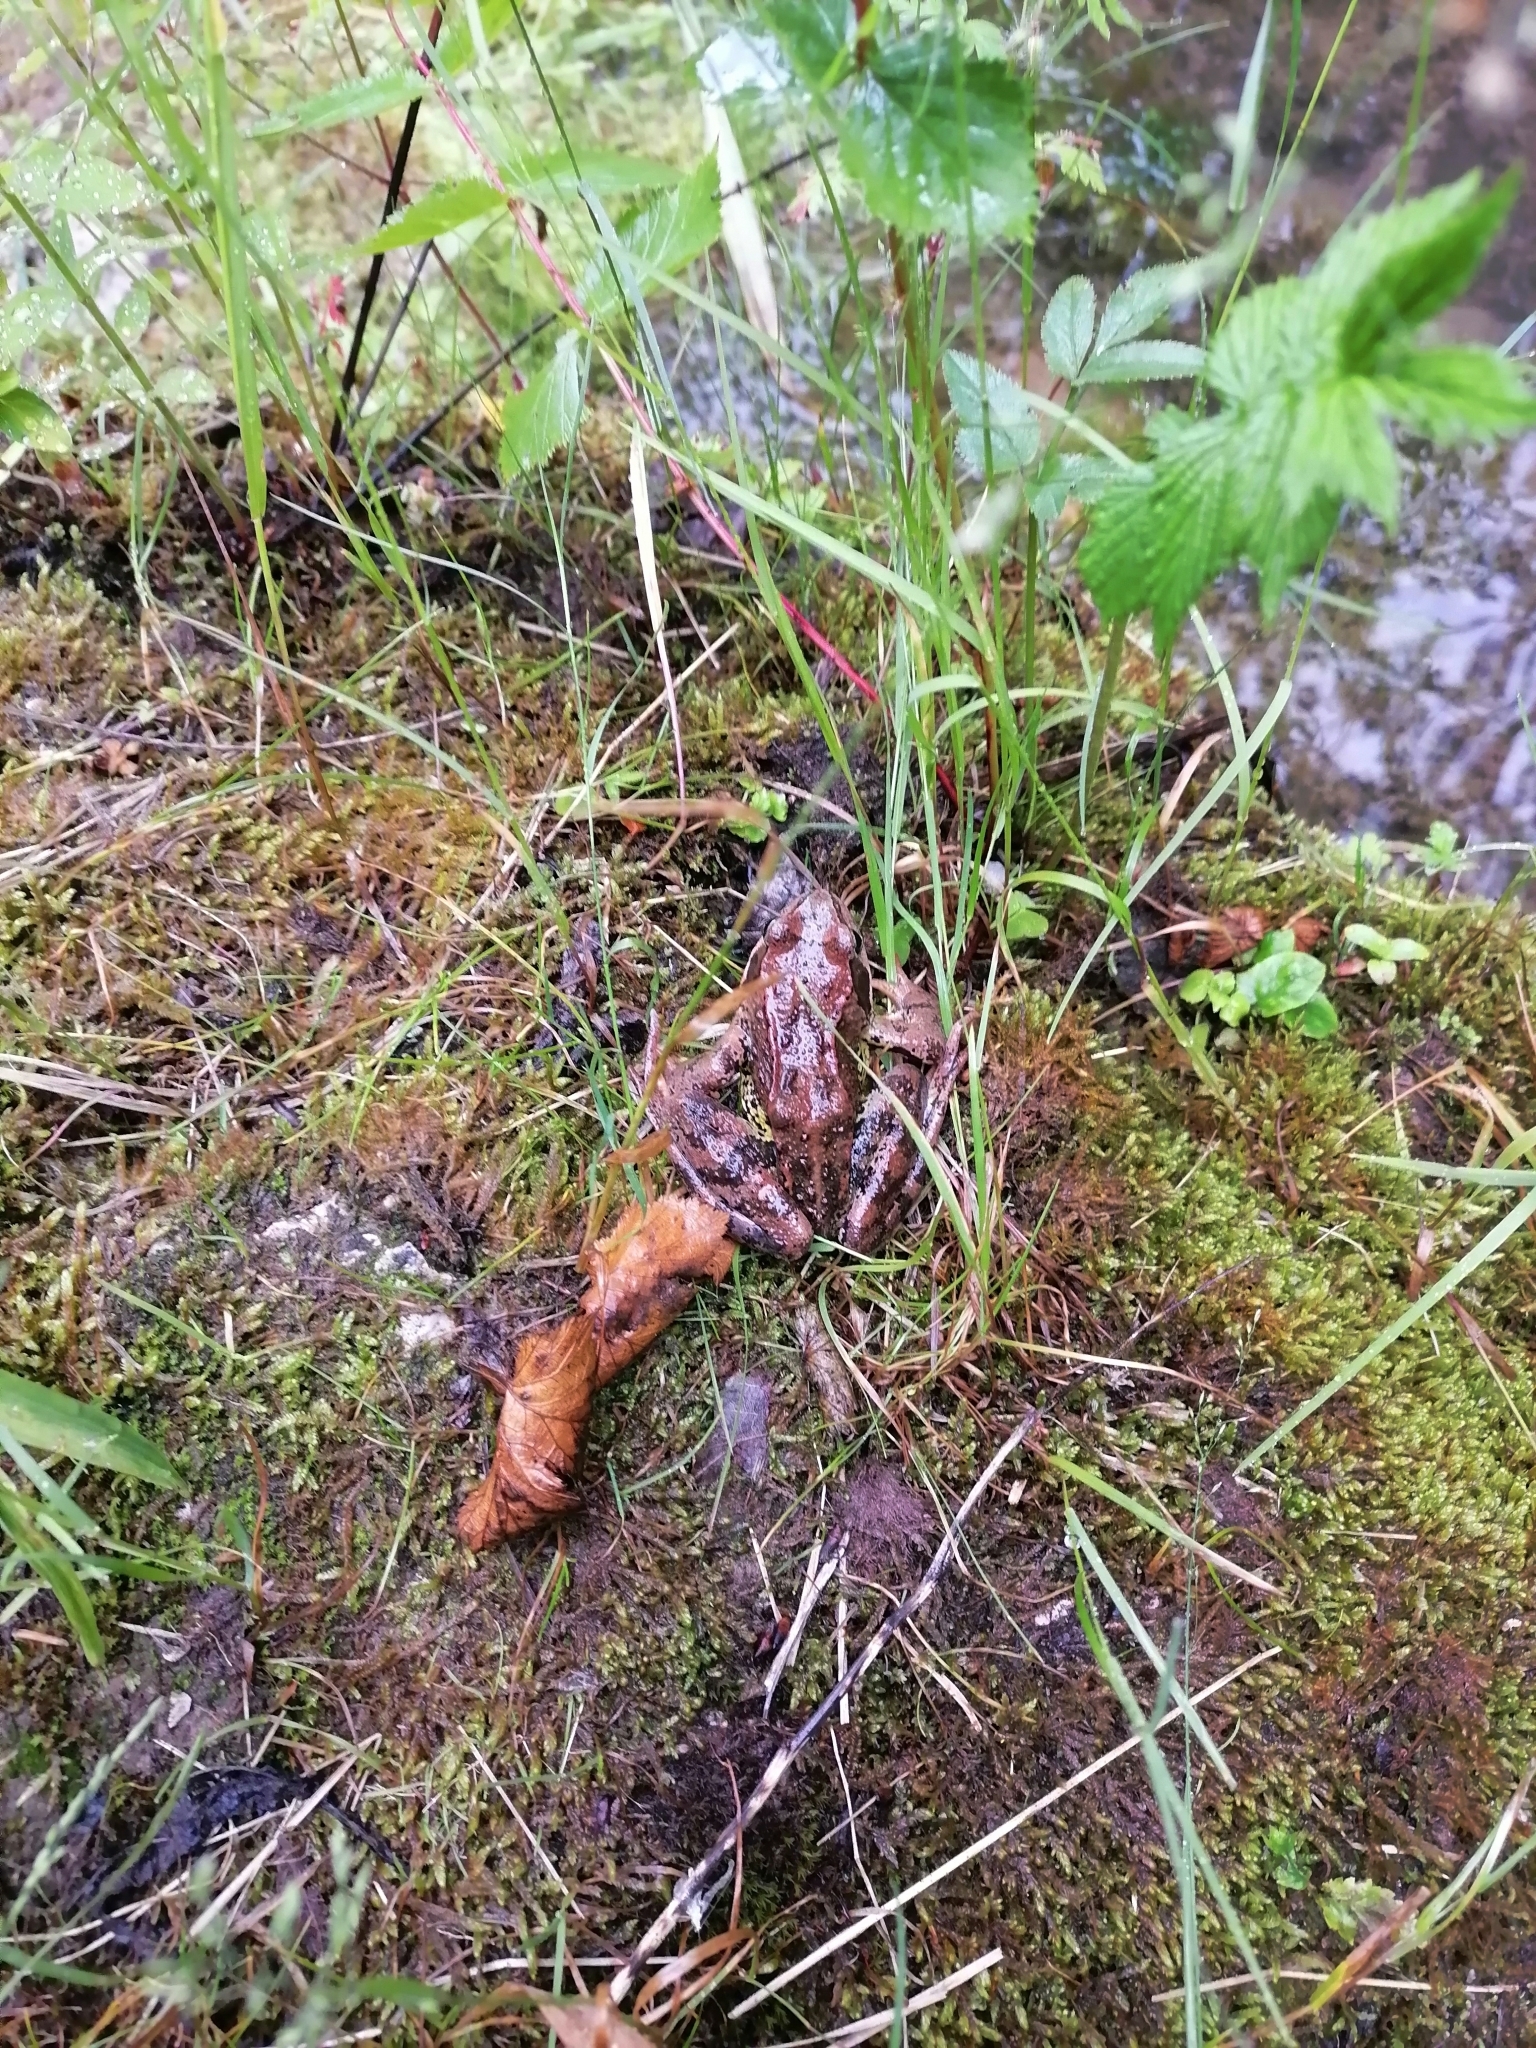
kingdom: Animalia
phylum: Chordata
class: Amphibia
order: Anura
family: Ranidae
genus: Rana
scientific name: Rana temporaria
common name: Common frog
